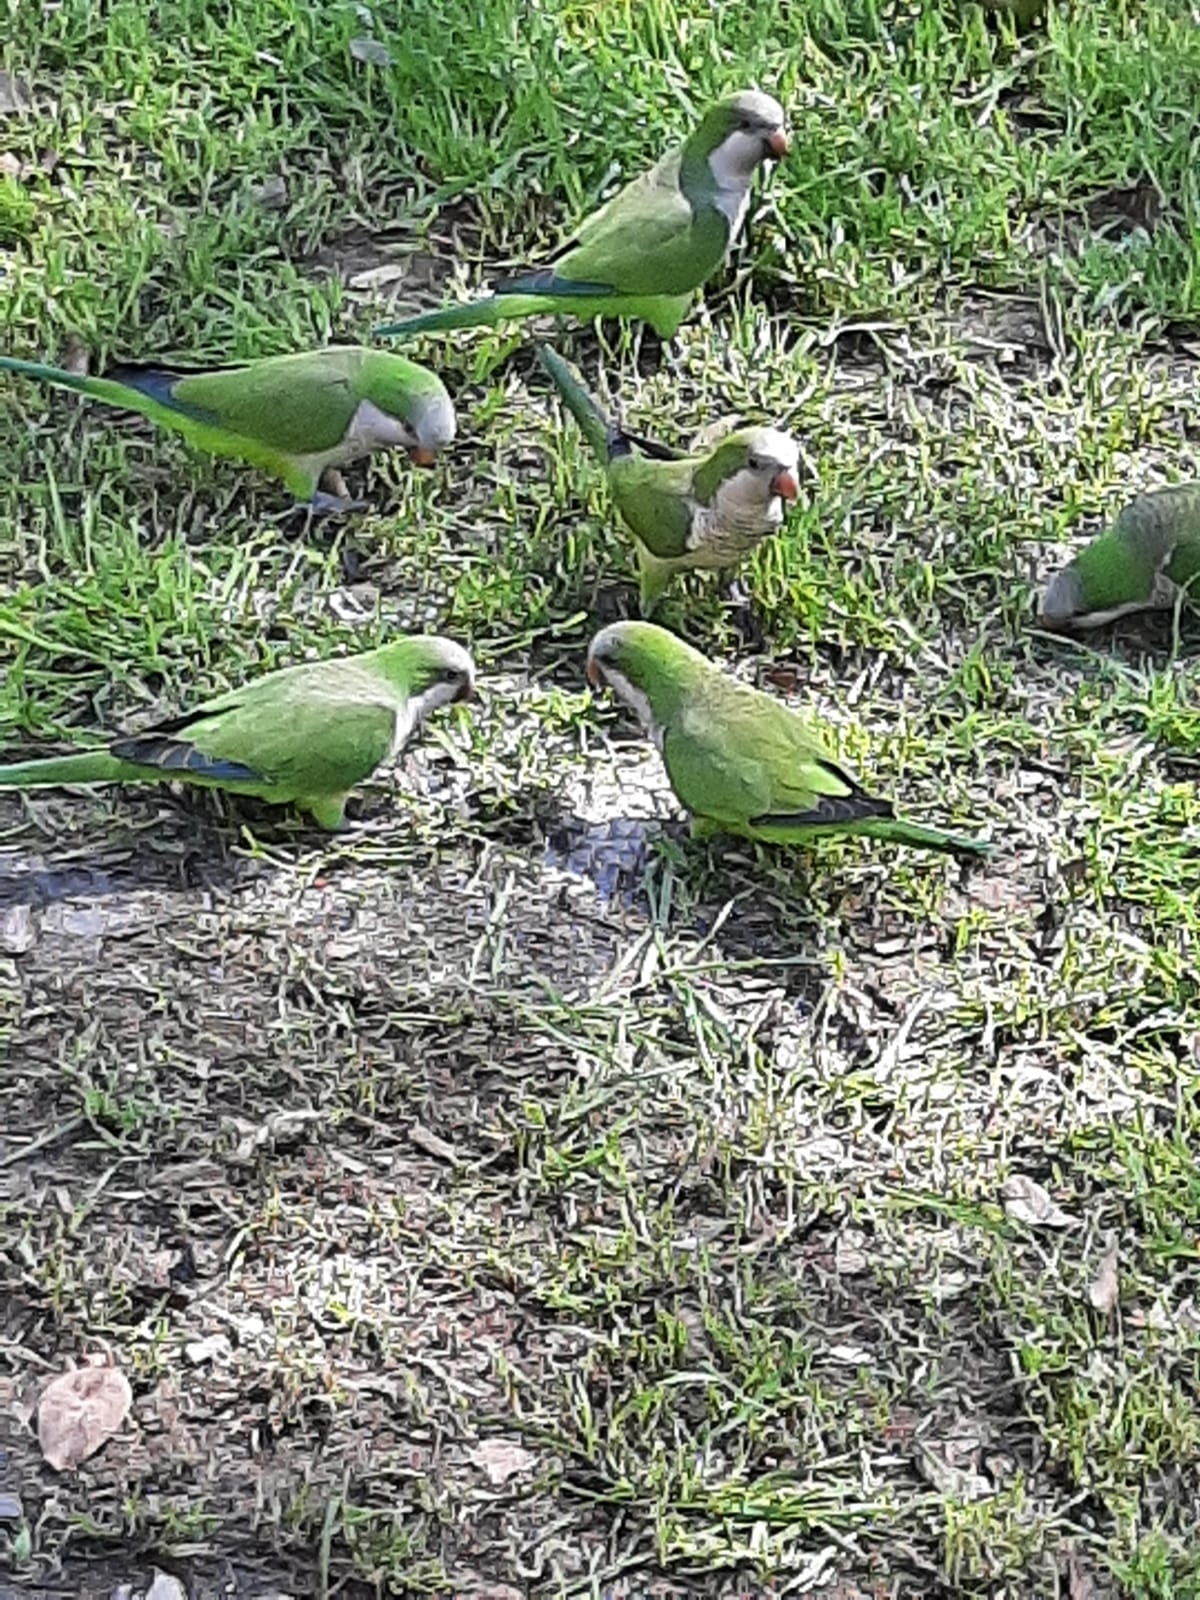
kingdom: Animalia
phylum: Chordata
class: Aves
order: Psittaciformes
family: Psittacidae
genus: Myiopsitta
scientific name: Myiopsitta monachus
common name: Monk parakeet
